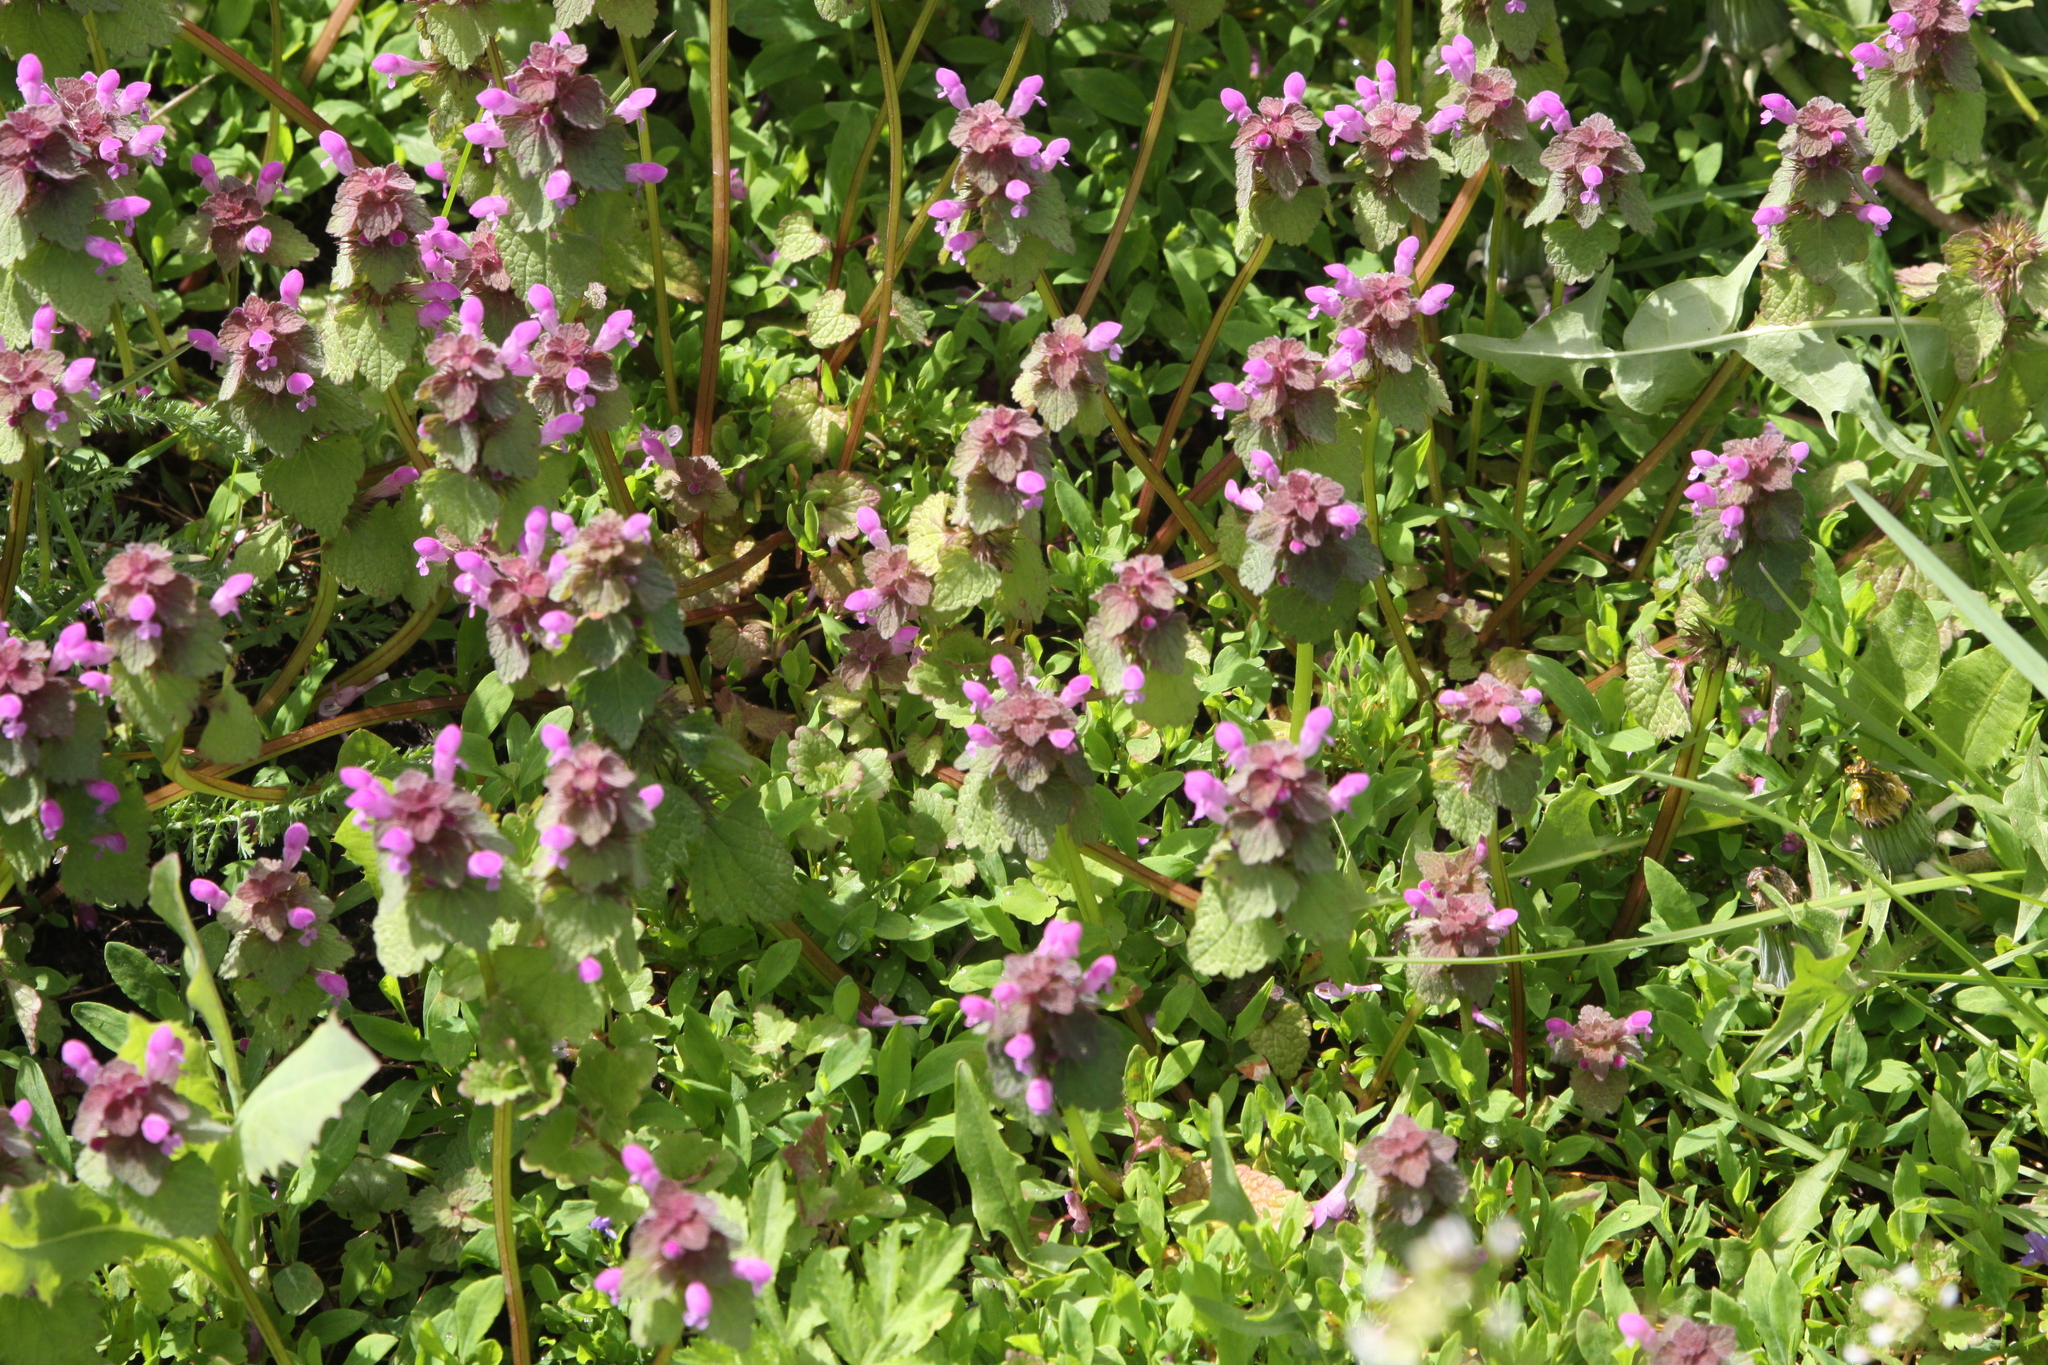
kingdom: Plantae
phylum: Tracheophyta
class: Magnoliopsida
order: Lamiales
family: Lamiaceae
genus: Lamium
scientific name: Lamium purpureum
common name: Red dead-nettle
